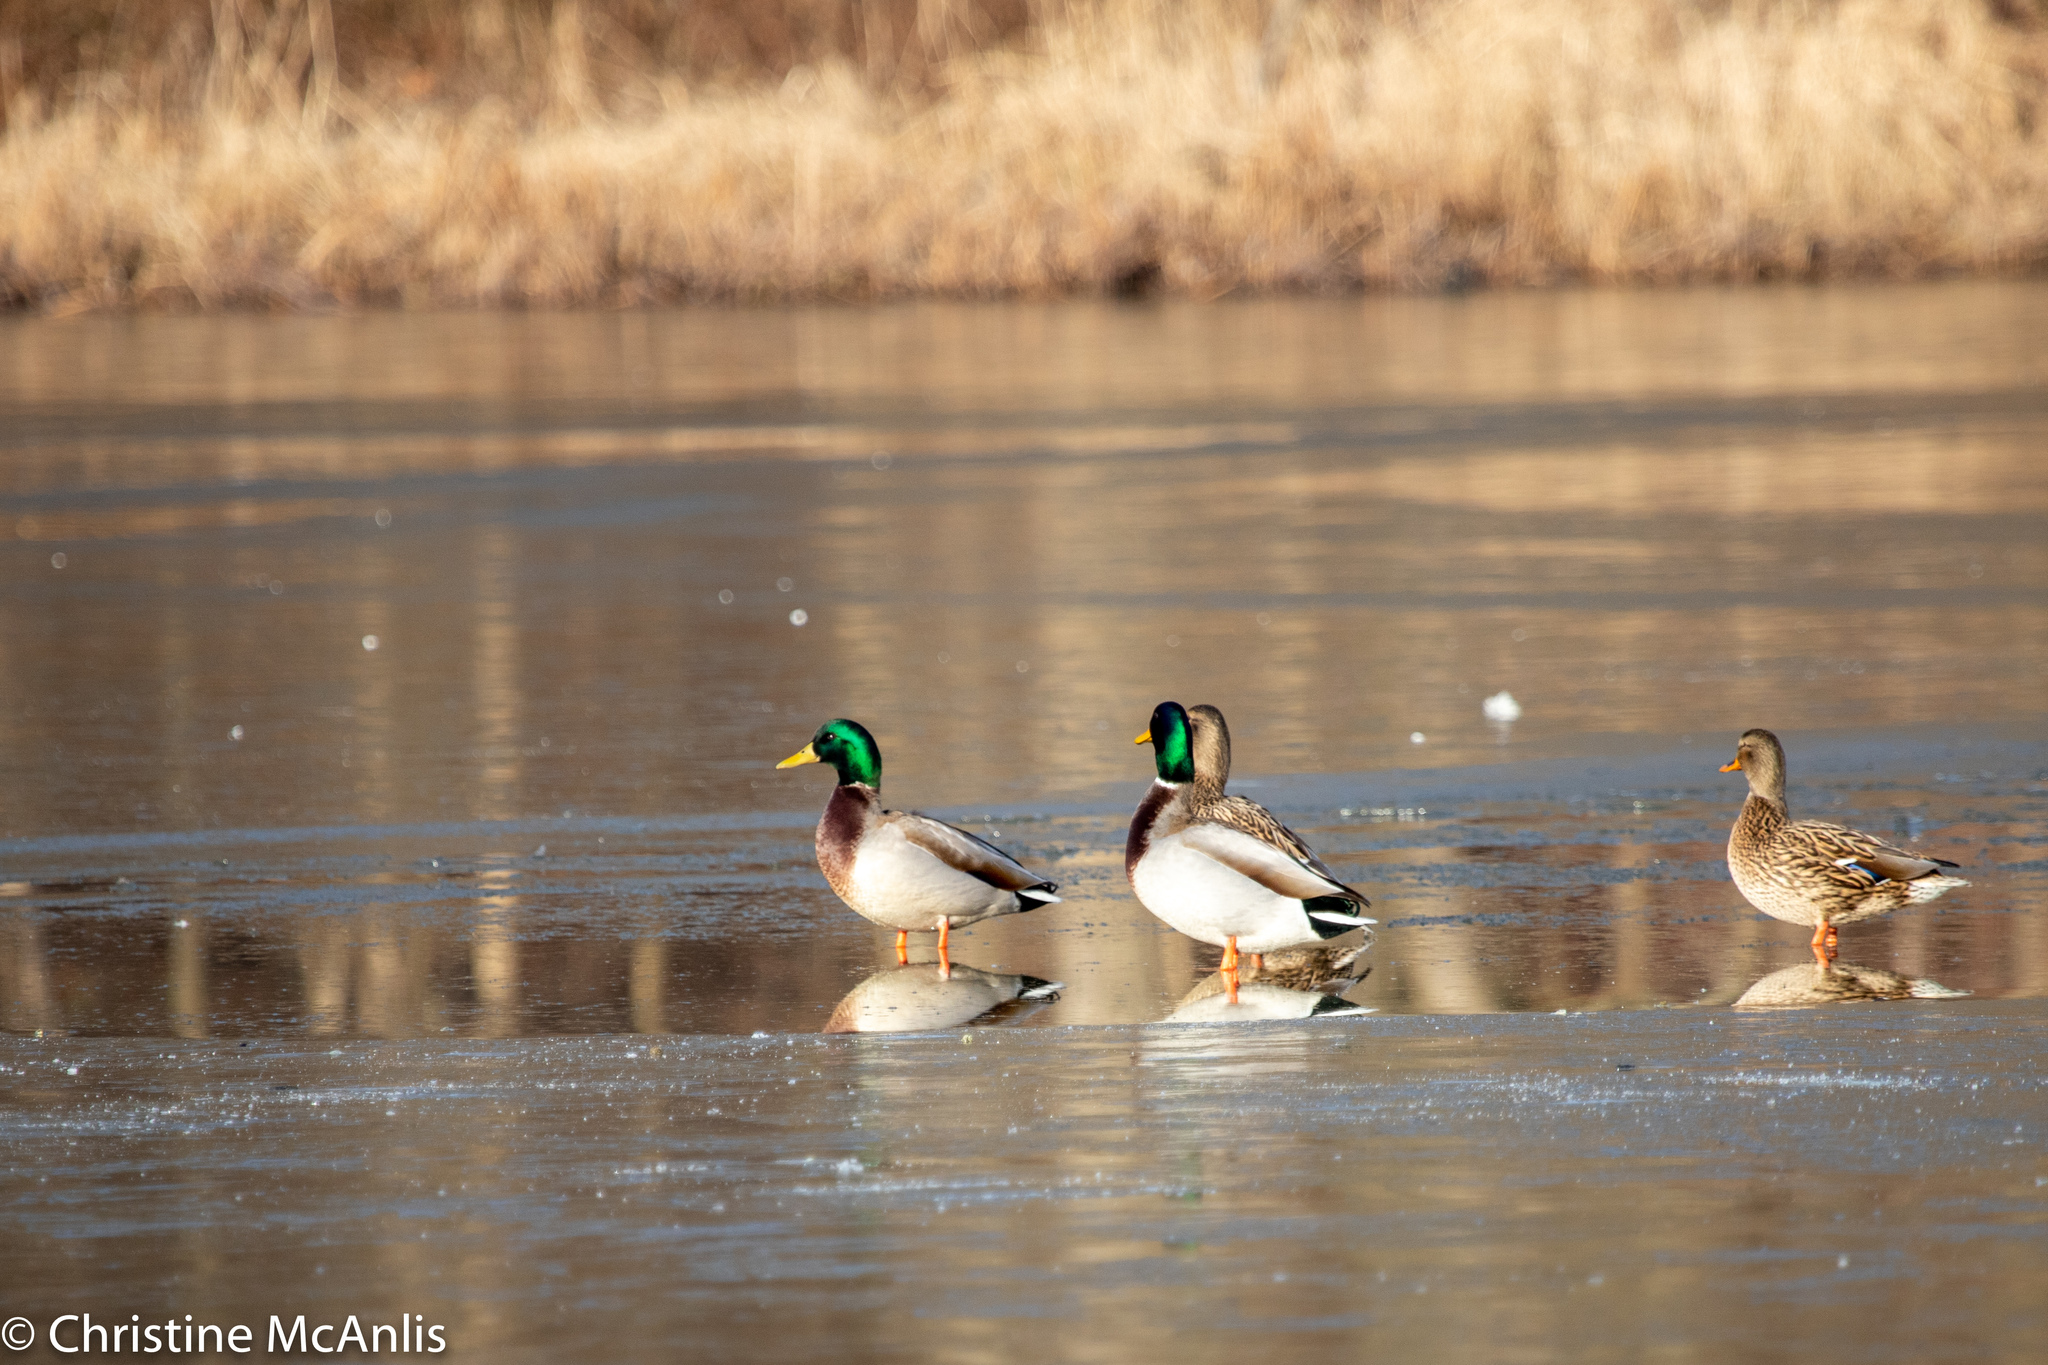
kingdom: Animalia
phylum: Chordata
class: Aves
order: Anseriformes
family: Anatidae
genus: Anas
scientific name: Anas platyrhynchos
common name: Mallard
